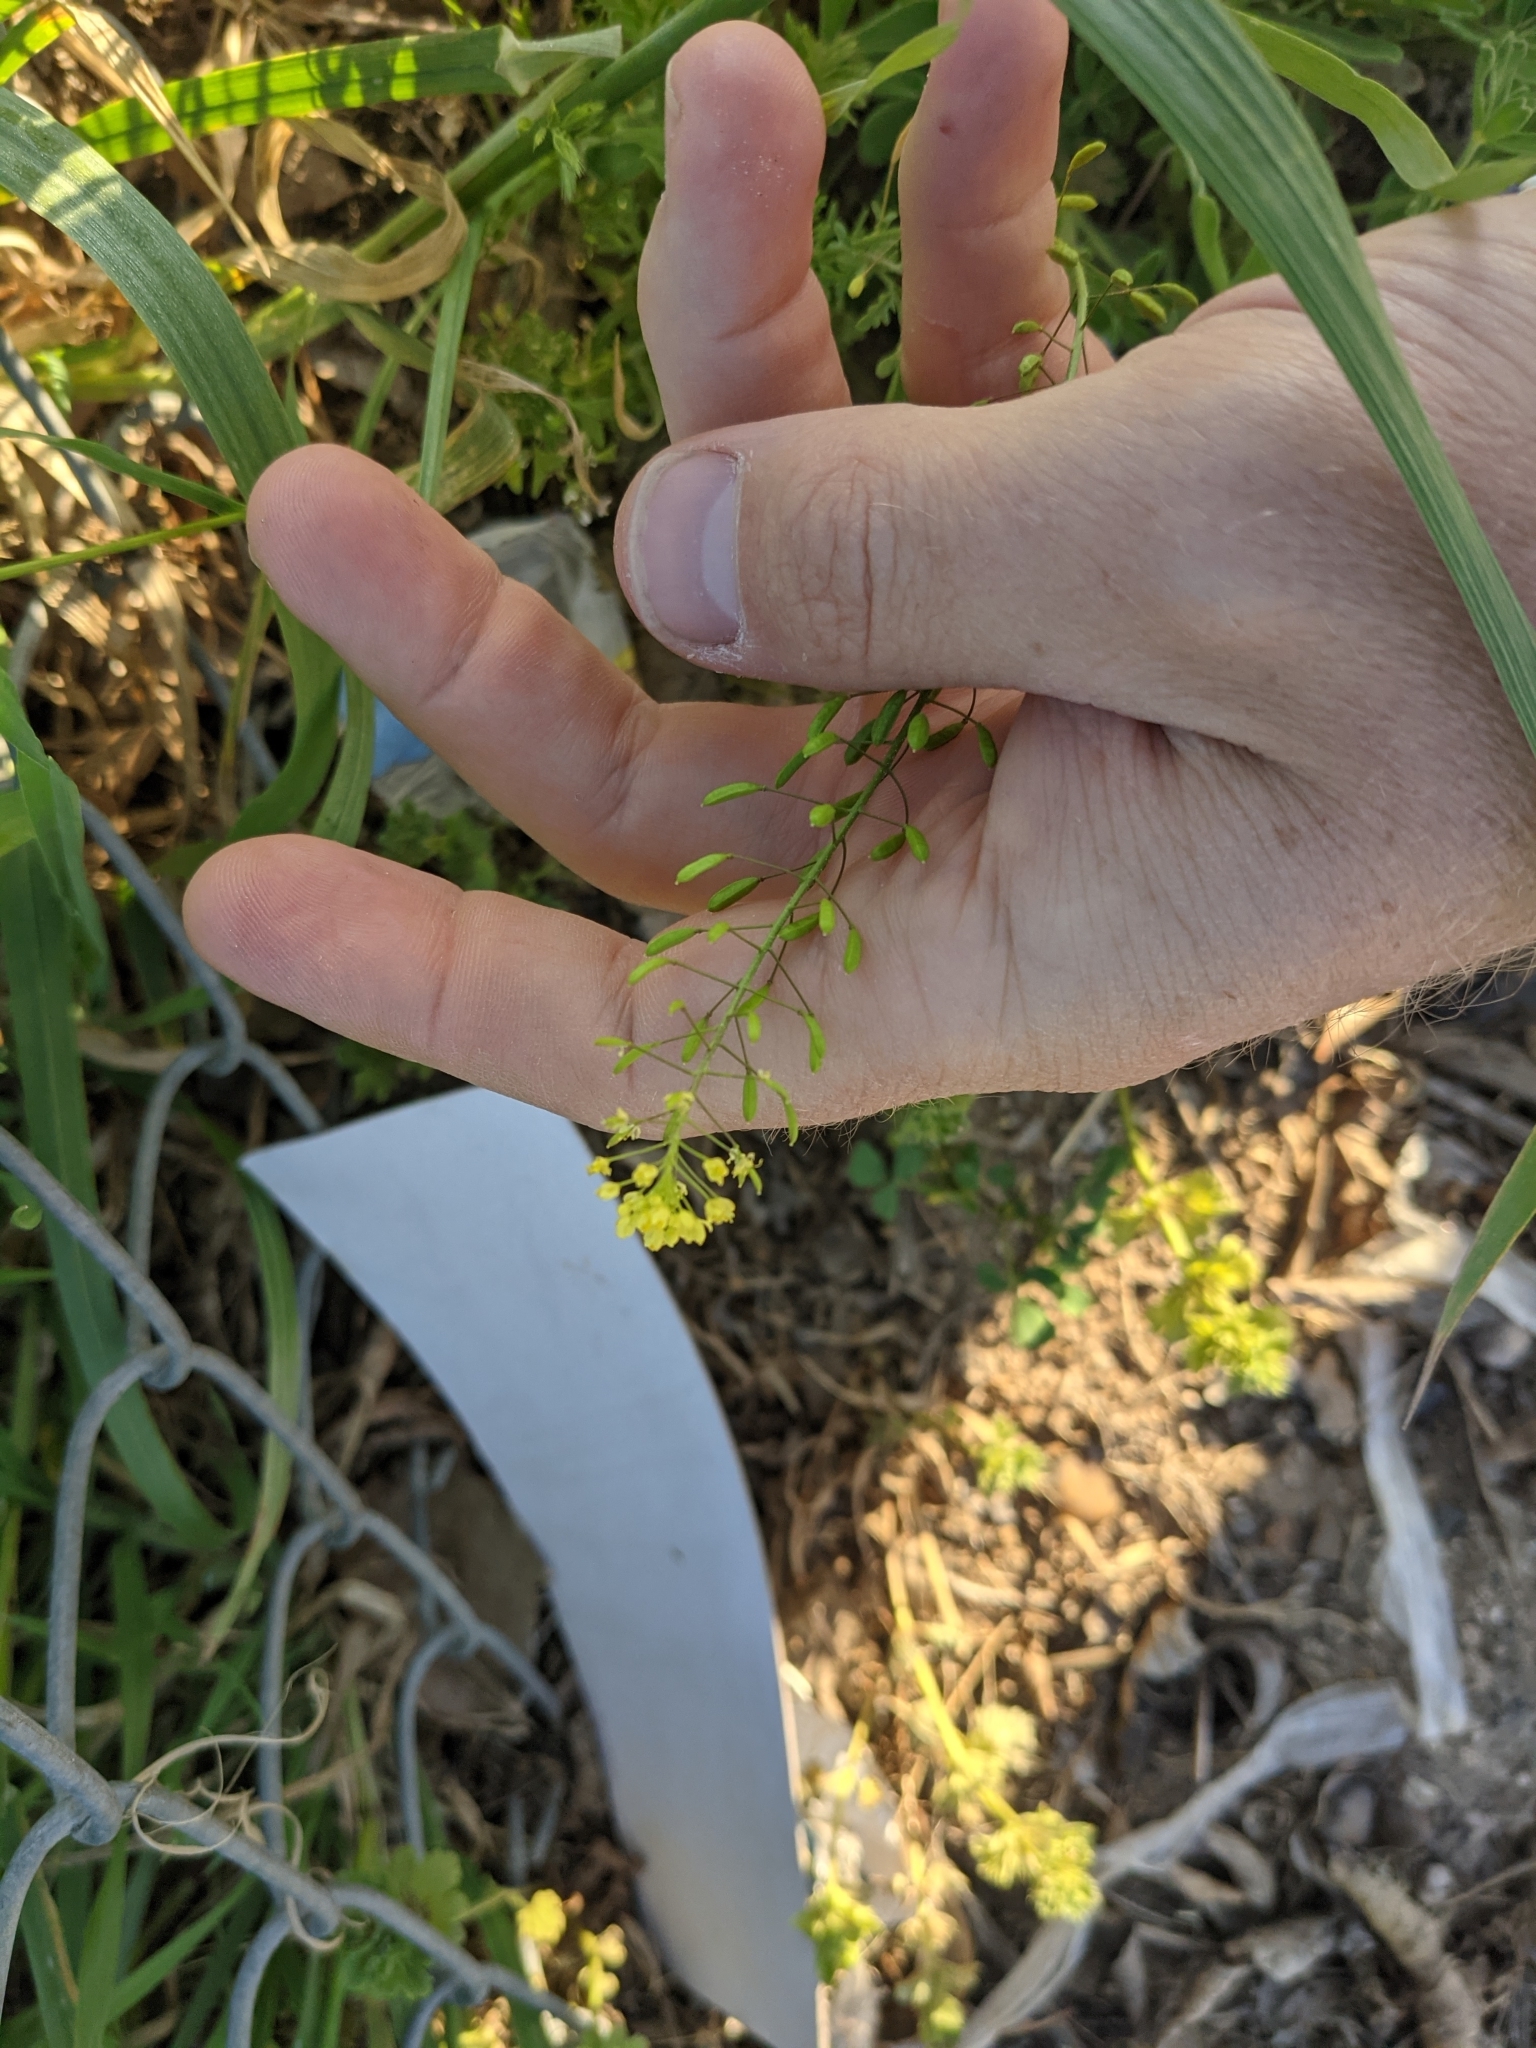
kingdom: Plantae
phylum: Tracheophyta
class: Magnoliopsida
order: Brassicales
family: Brassicaceae
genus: Descurainia
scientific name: Descurainia pinnata
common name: Western tansy mustard
